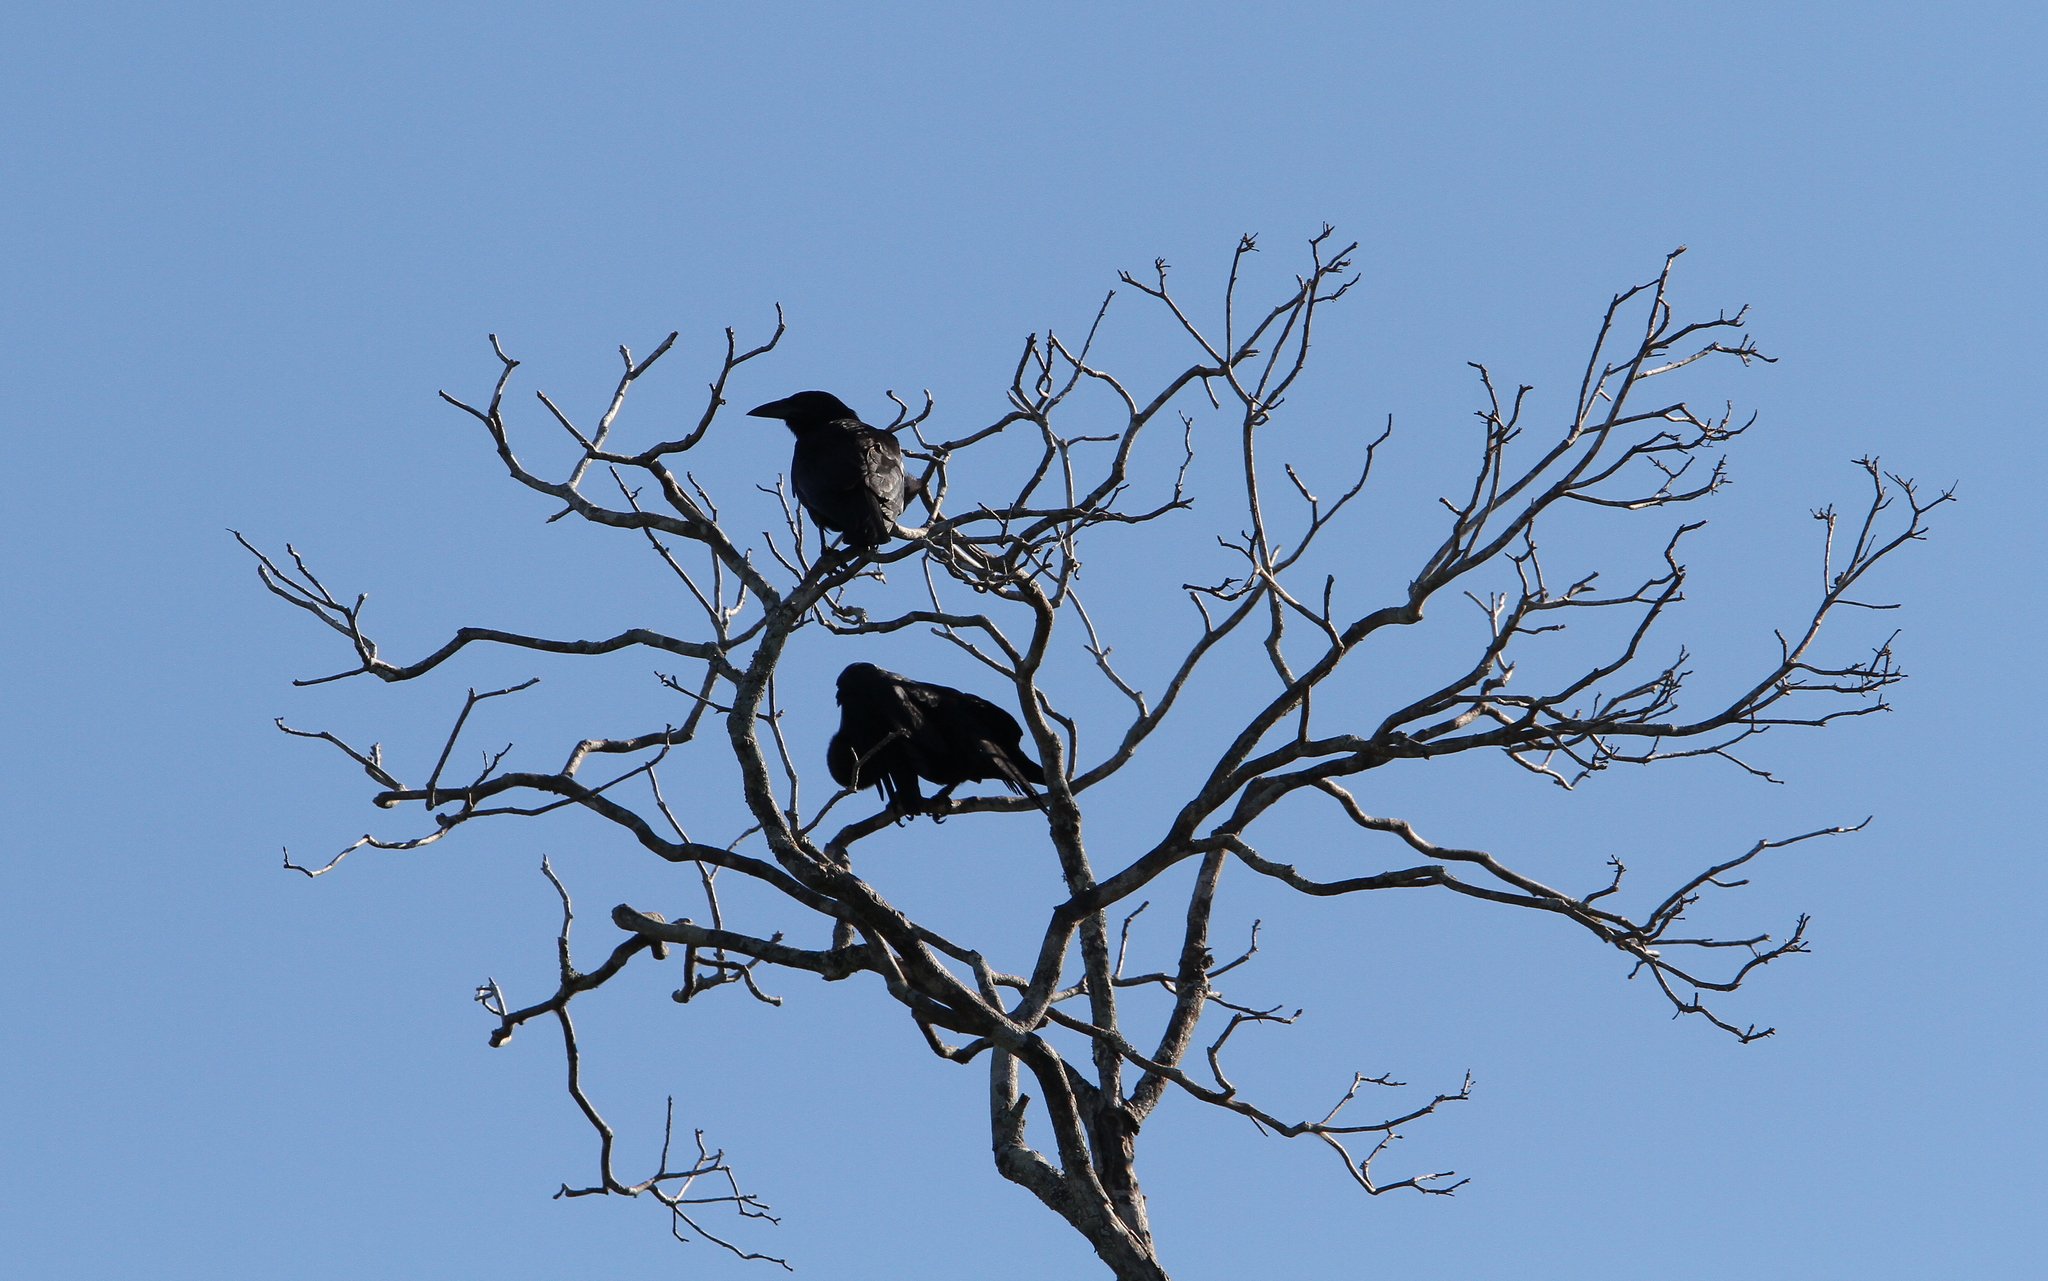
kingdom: Animalia
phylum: Chordata
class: Aves
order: Passeriformes
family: Corvidae
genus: Corvus
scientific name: Corvus minutus
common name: Cuban palm crow
